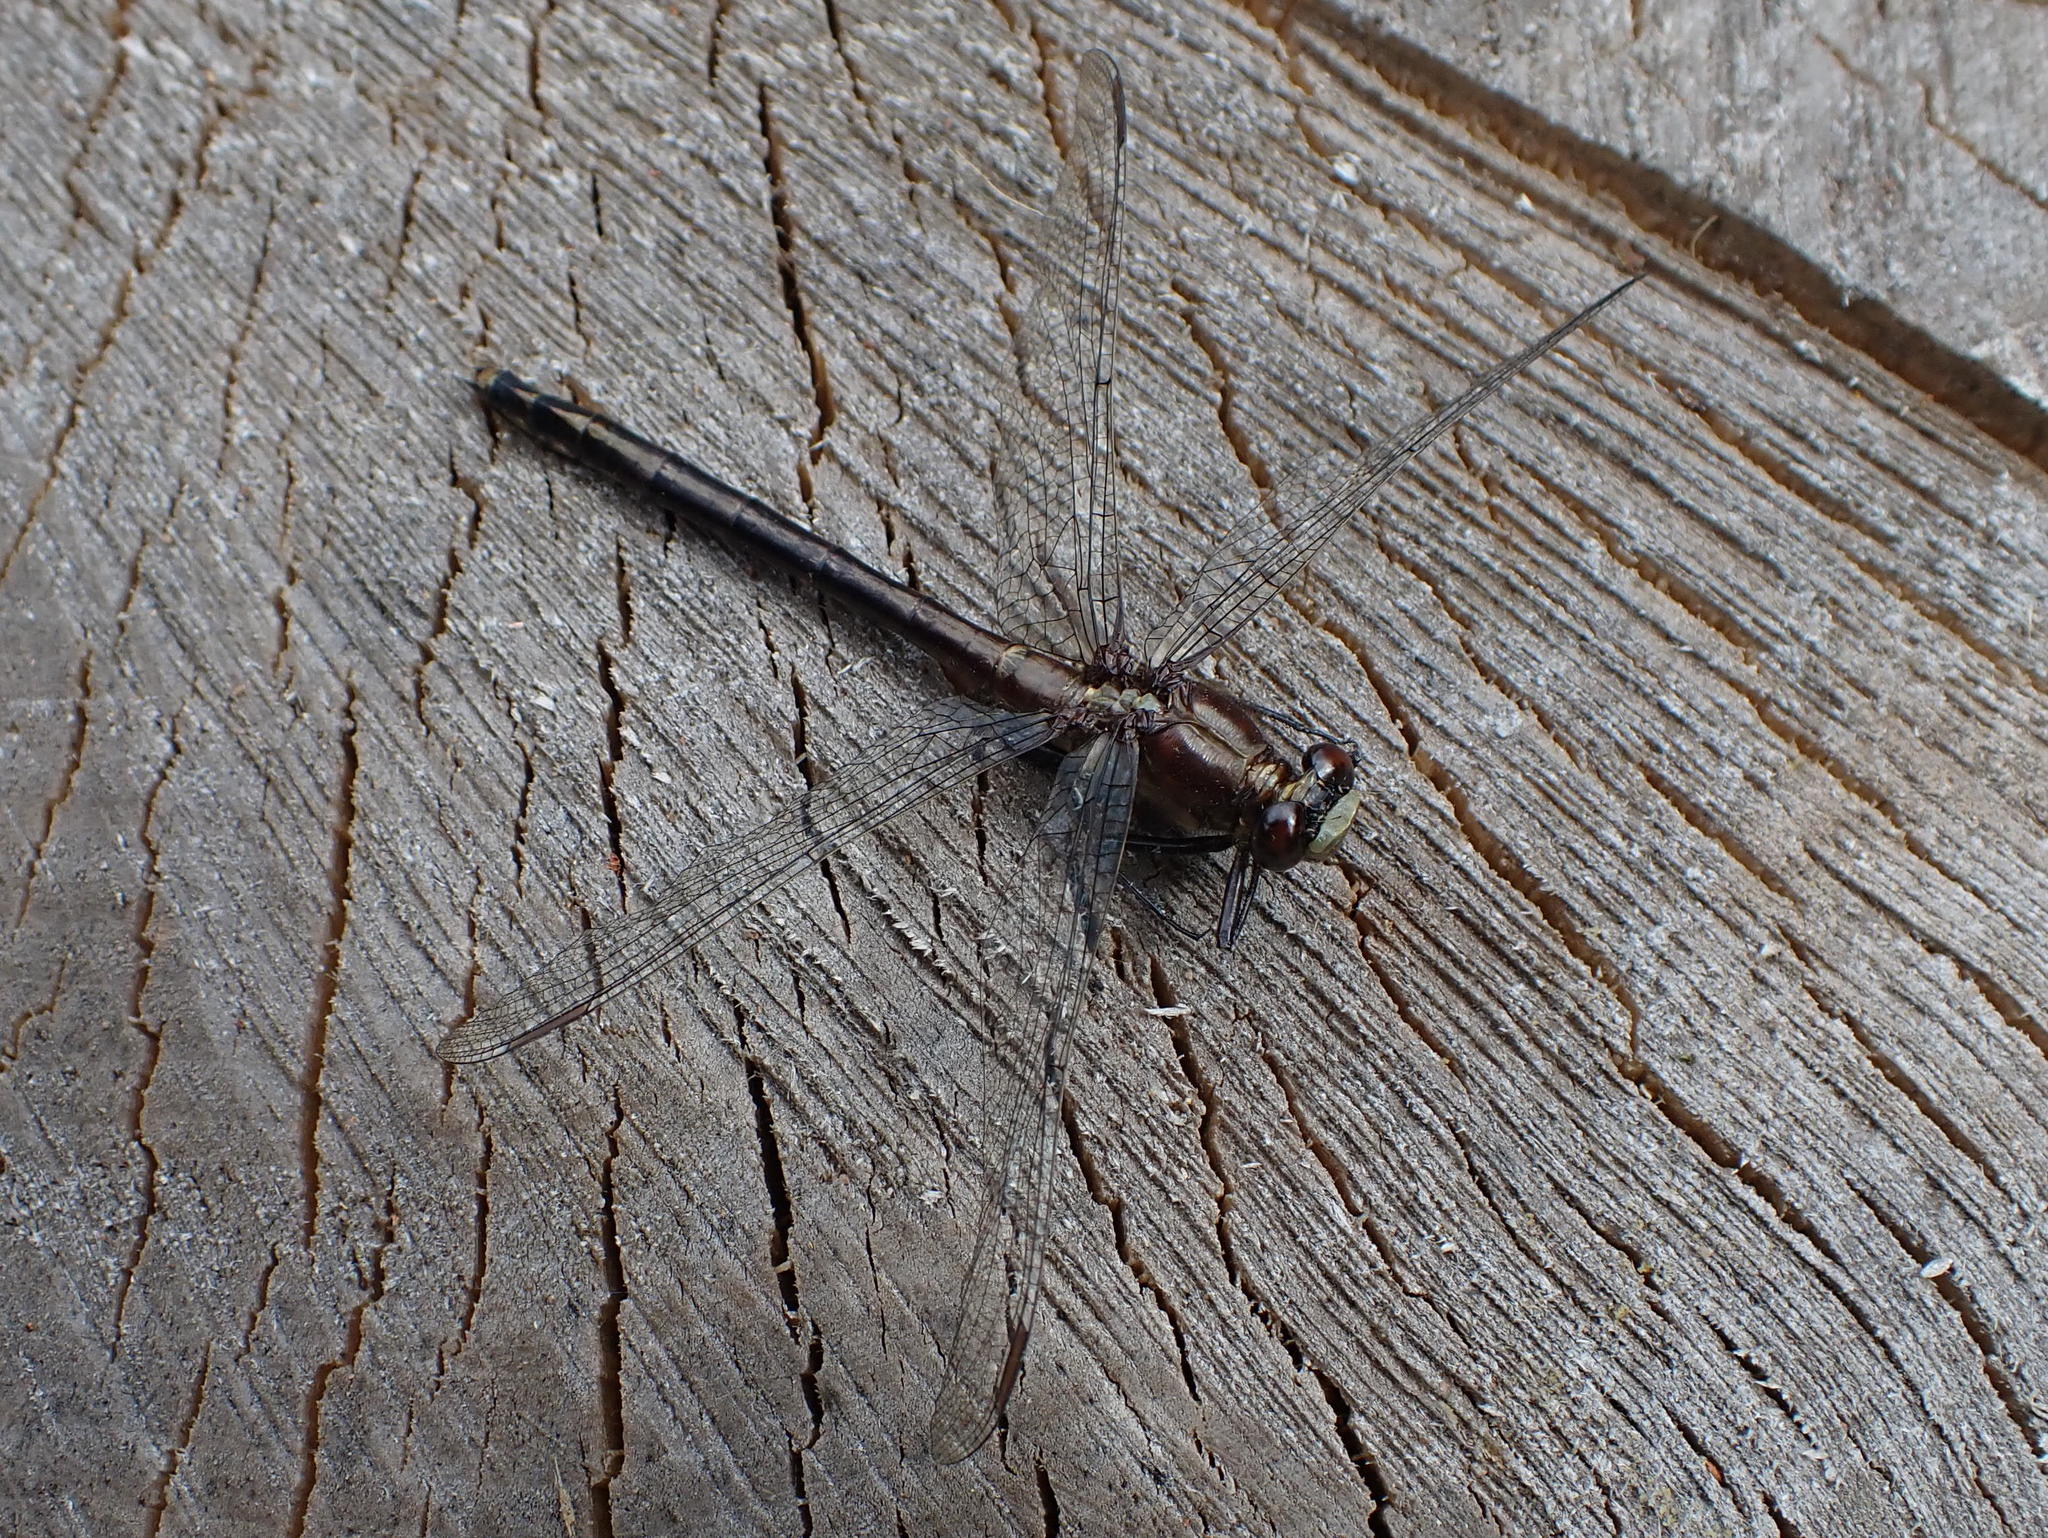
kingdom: Animalia
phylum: Arthropoda
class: Insecta
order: Odonata
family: Gomphidae
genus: Dromogomphus
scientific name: Dromogomphus spinosus
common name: Black-shouldered spinyleg
